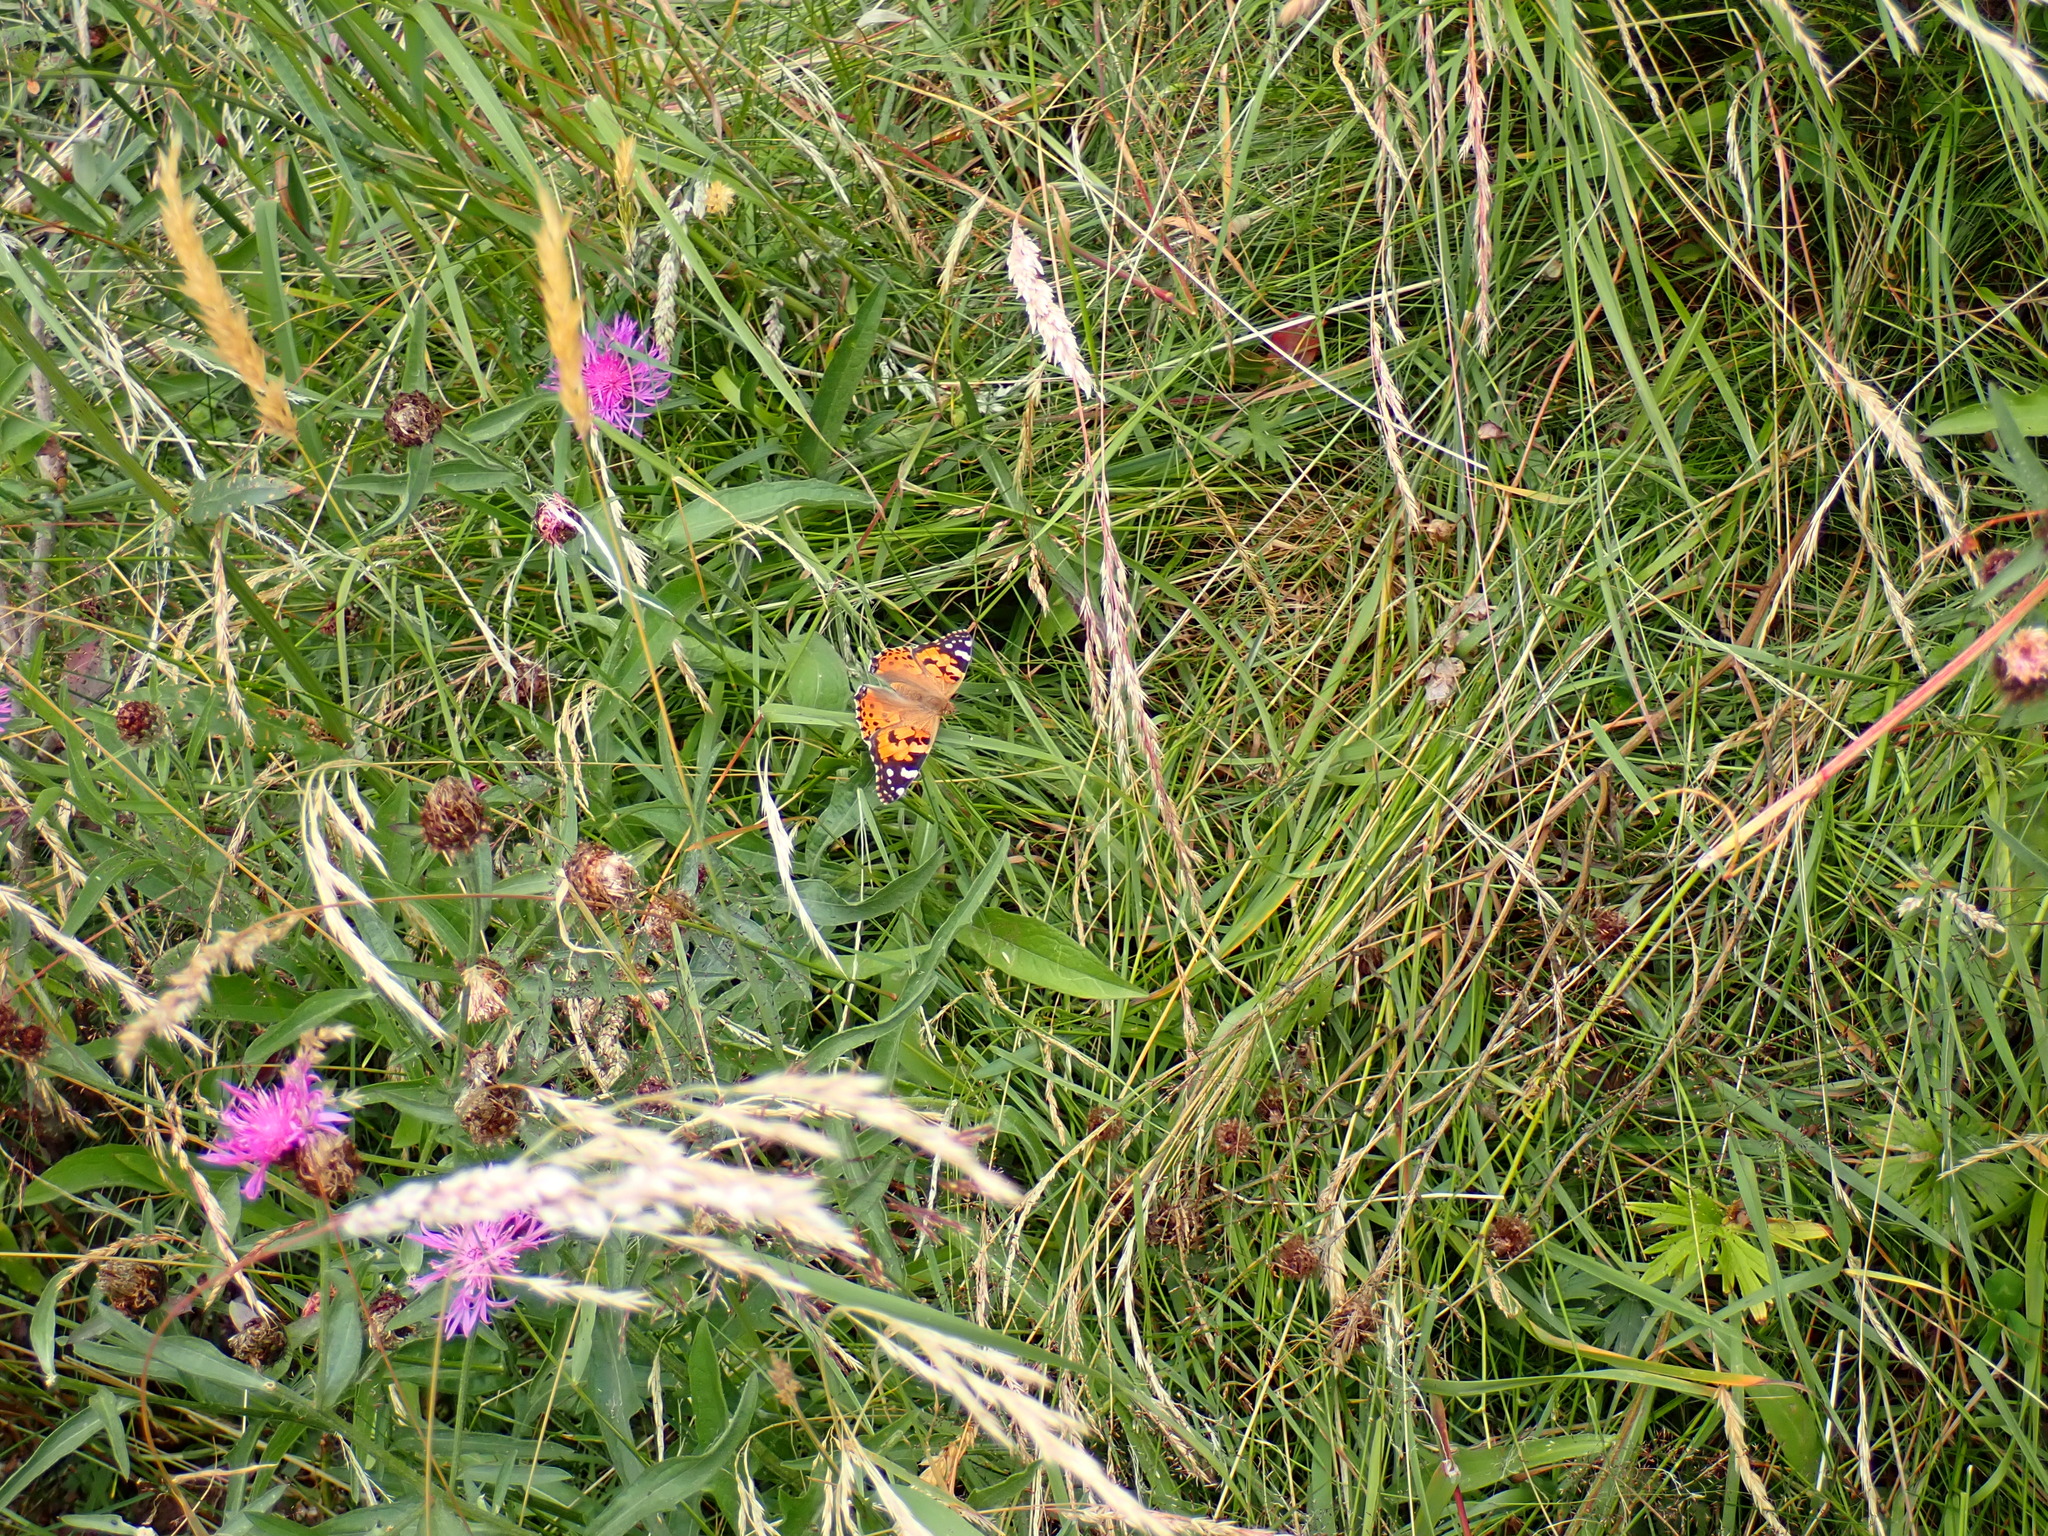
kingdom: Animalia
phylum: Arthropoda
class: Insecta
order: Lepidoptera
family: Nymphalidae
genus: Vanessa
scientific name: Vanessa cardui
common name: Painted lady
